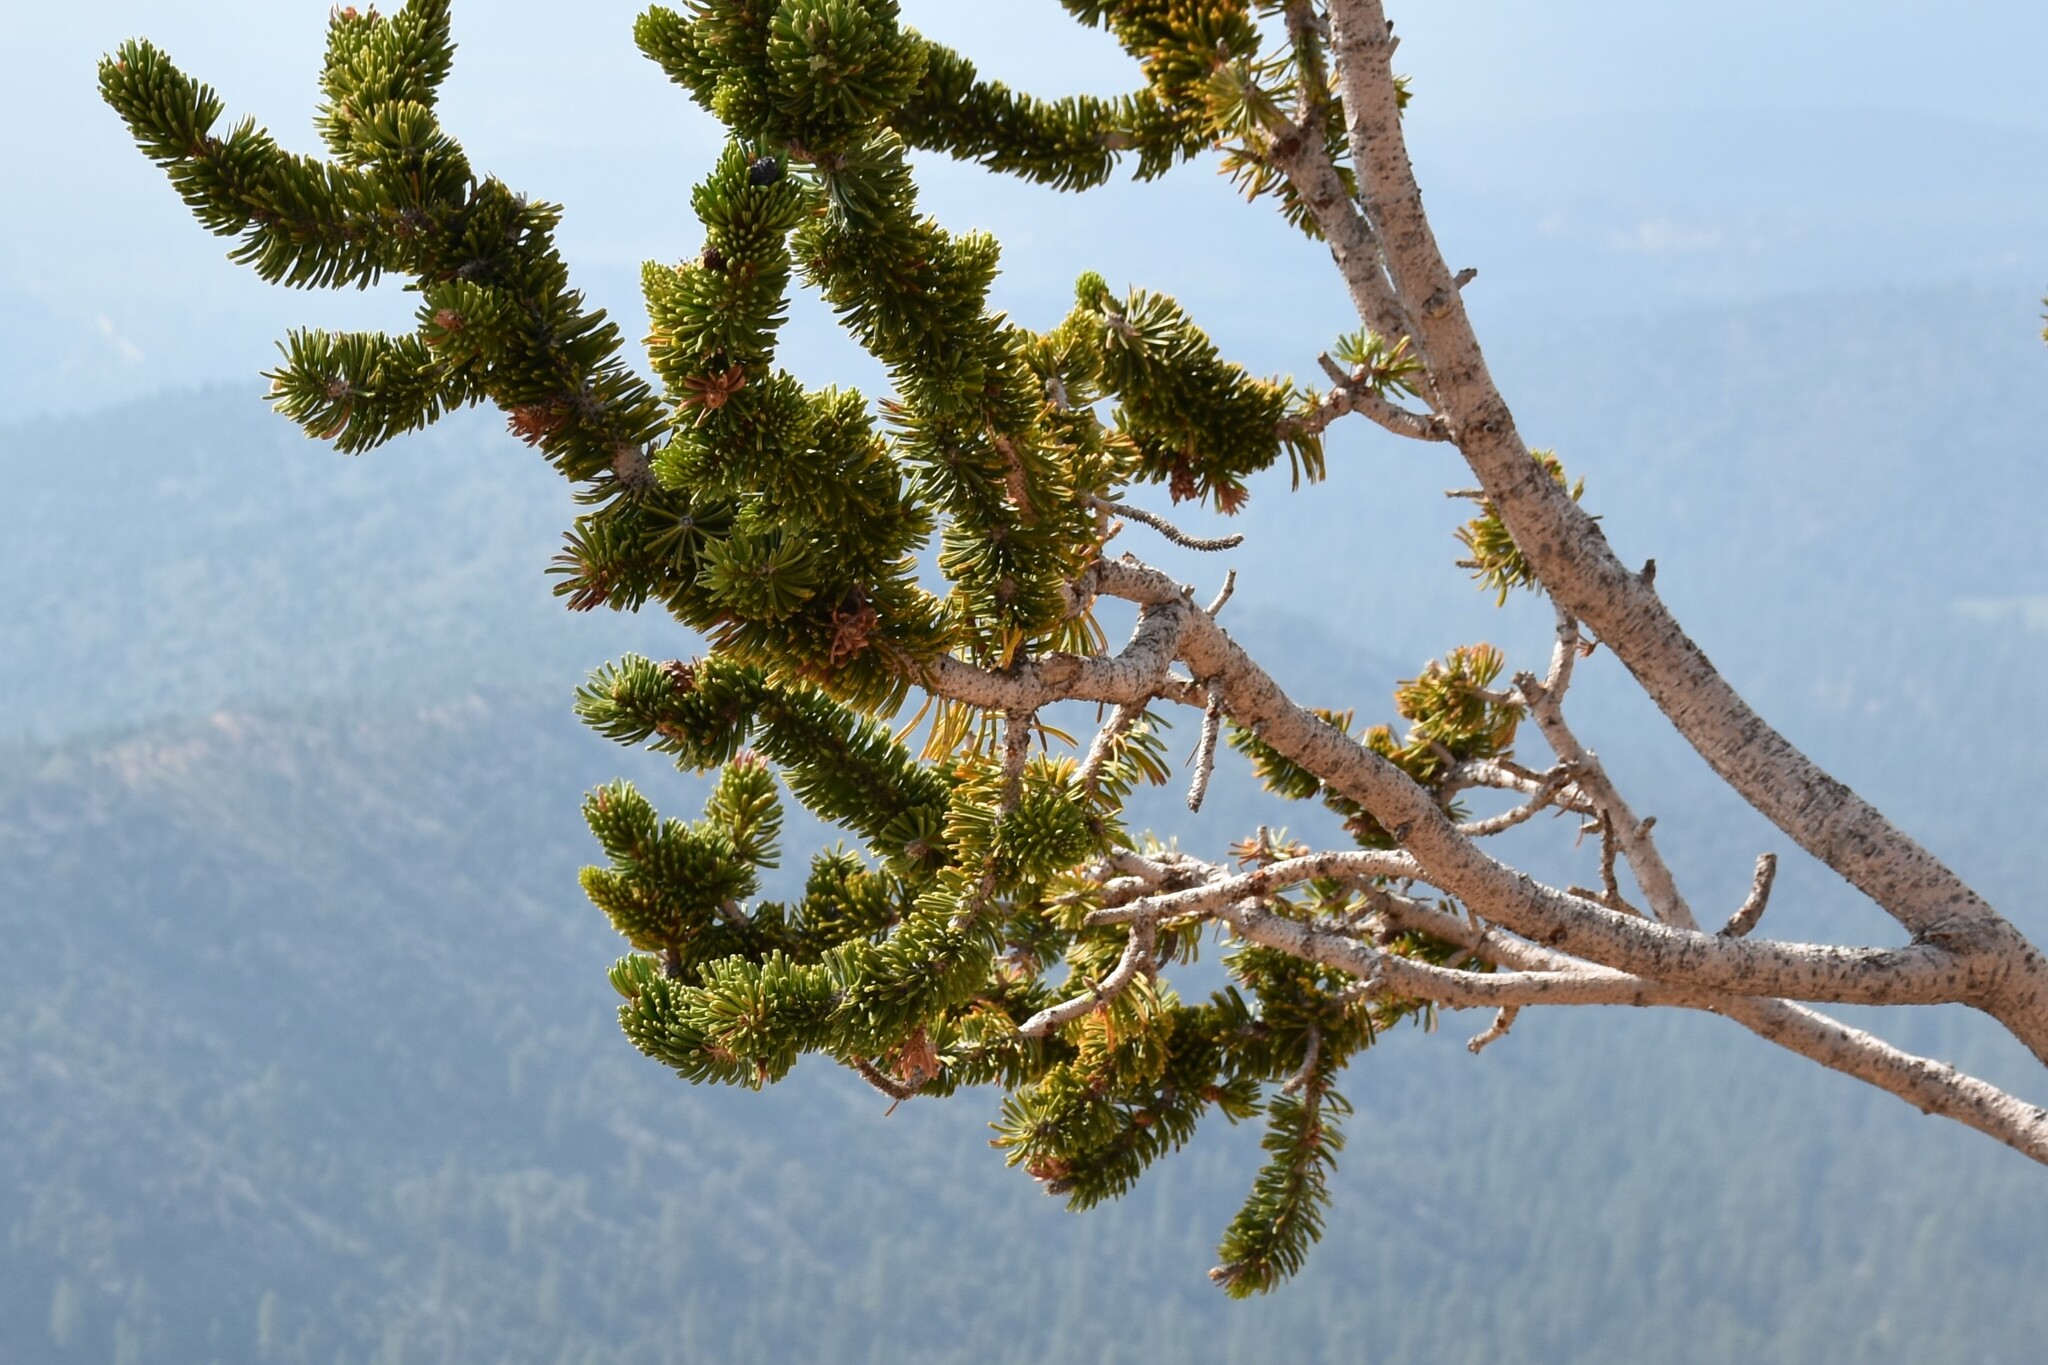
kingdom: Plantae
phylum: Tracheophyta
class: Pinopsida
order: Pinales
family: Pinaceae
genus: Pinus
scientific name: Pinus longaeva
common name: Intermountain bristlecone pine
